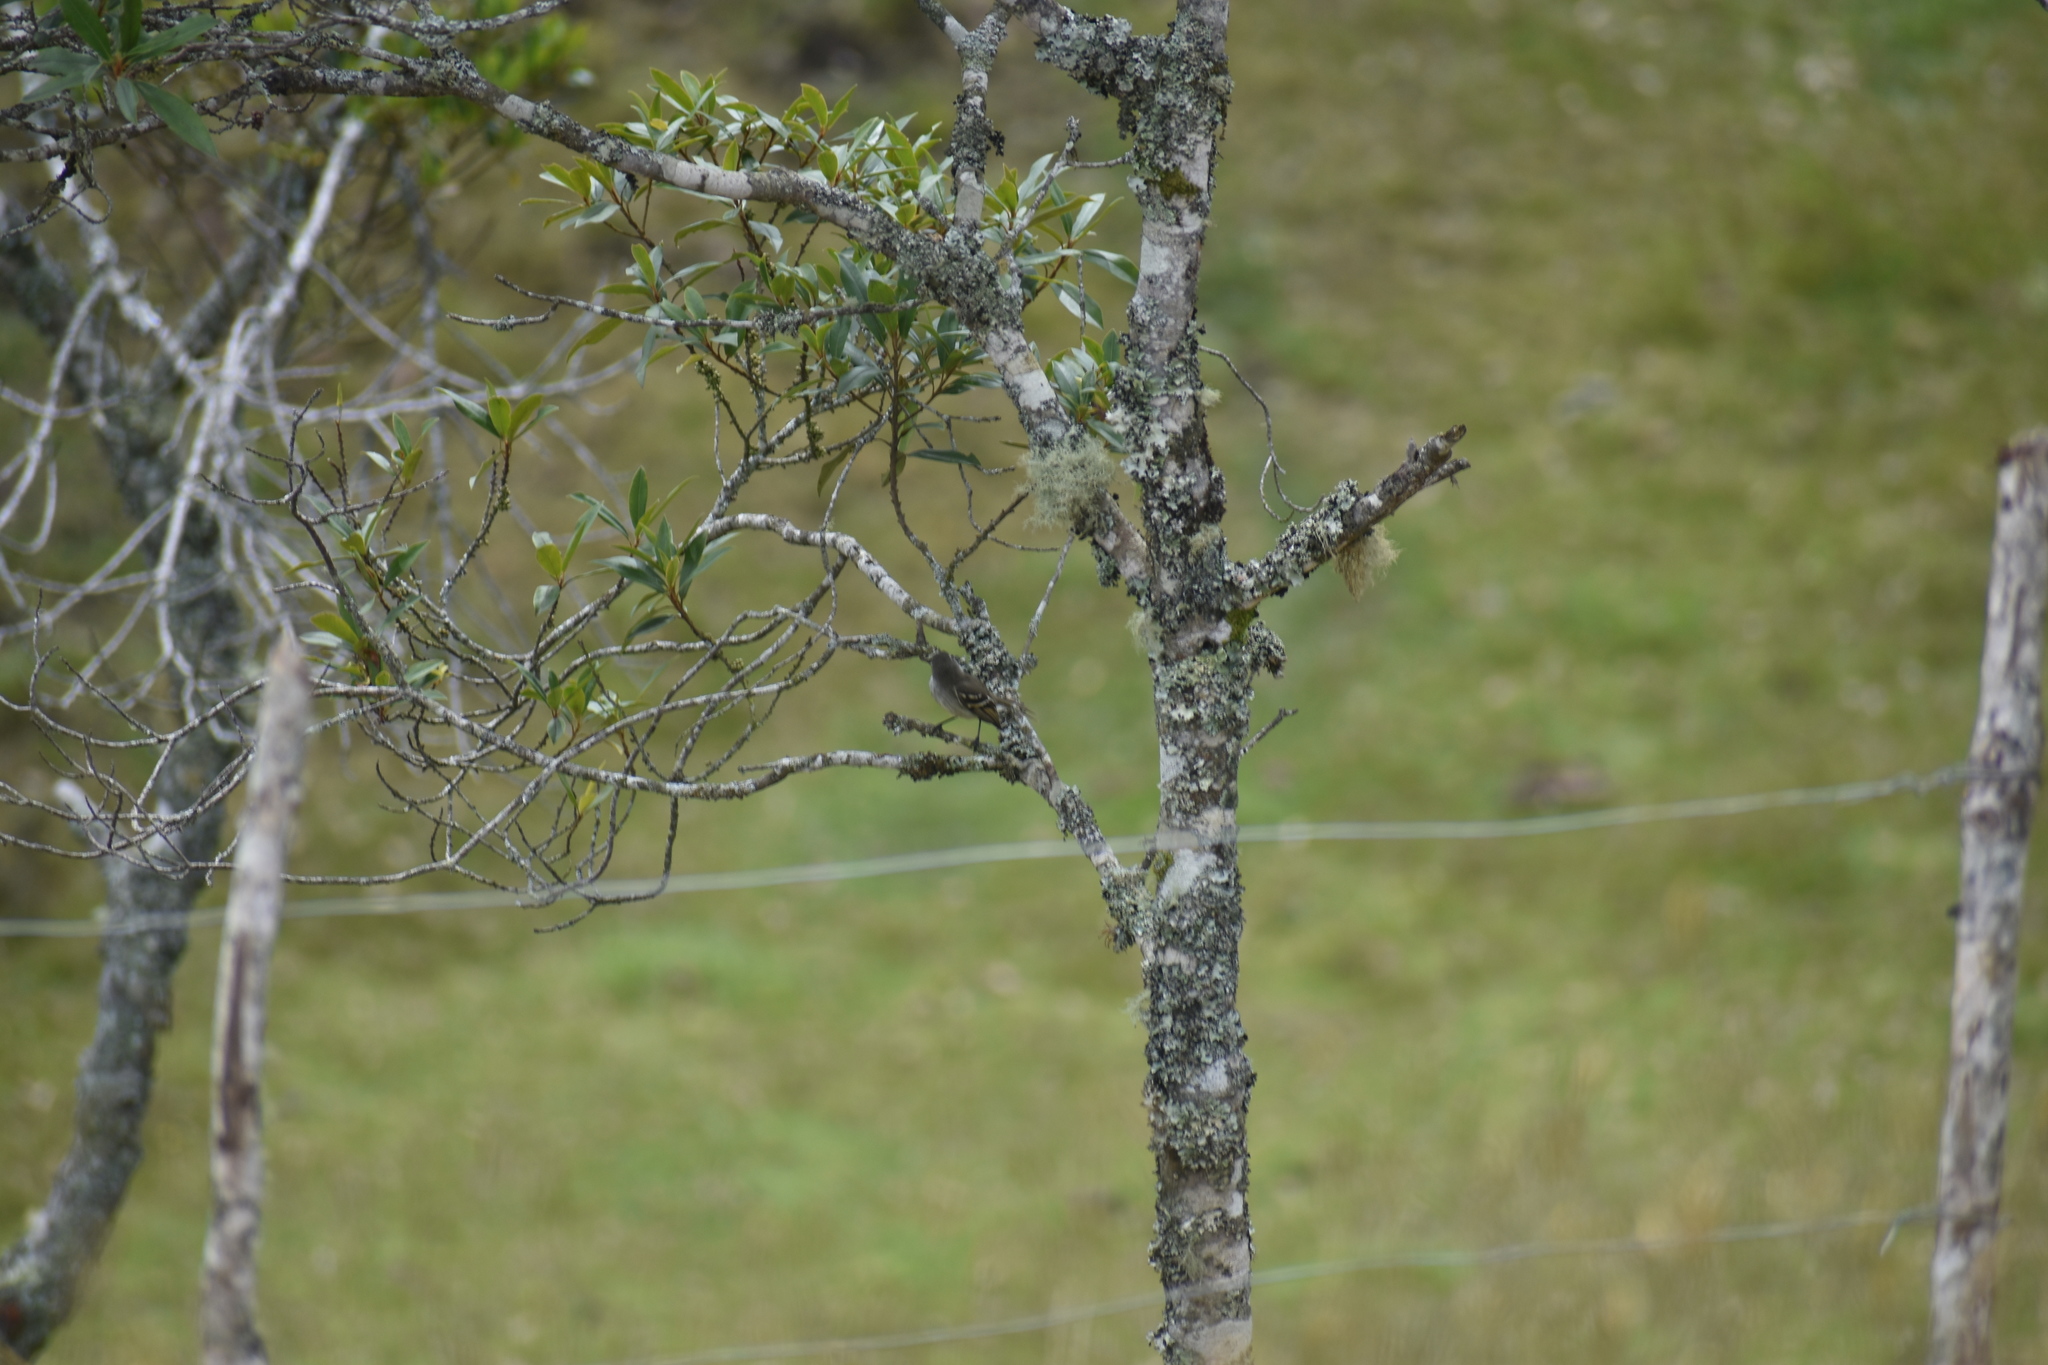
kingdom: Animalia
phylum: Chordata
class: Aves
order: Passeriformes
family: Tyrannidae
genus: Mecocerculus
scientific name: Mecocerculus leucophrys
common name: White-throated tyrannulet
